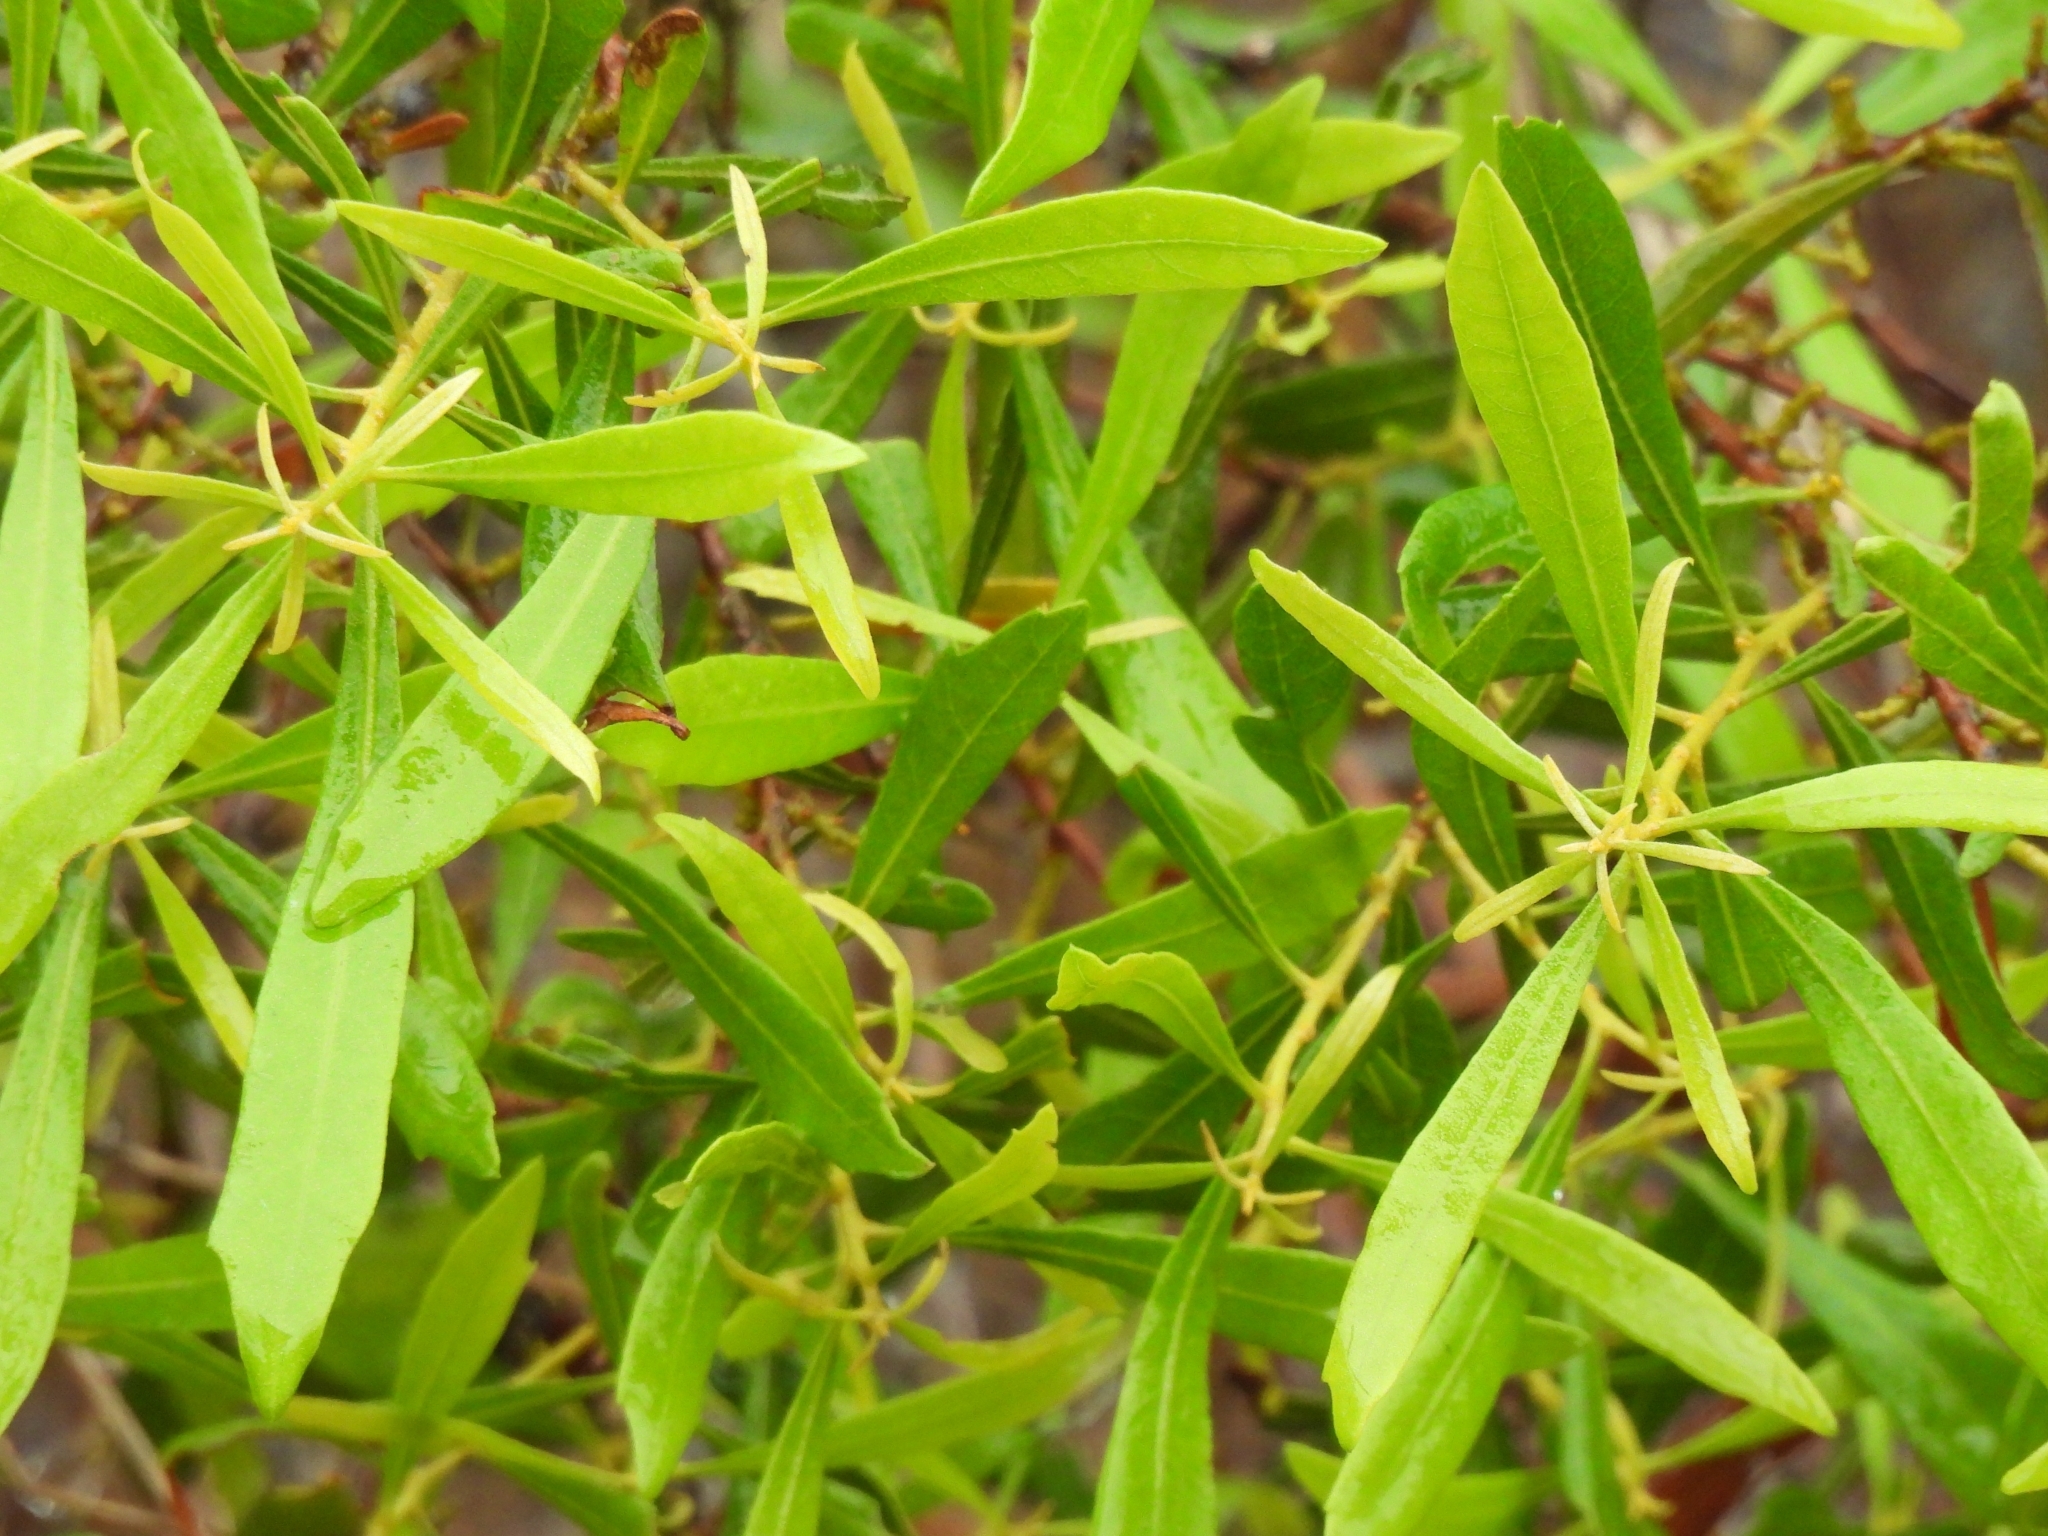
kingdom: Plantae
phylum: Tracheophyta
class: Magnoliopsida
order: Fagales
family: Myricaceae
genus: Morella
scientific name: Morella cerifera
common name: Wax myrtle
